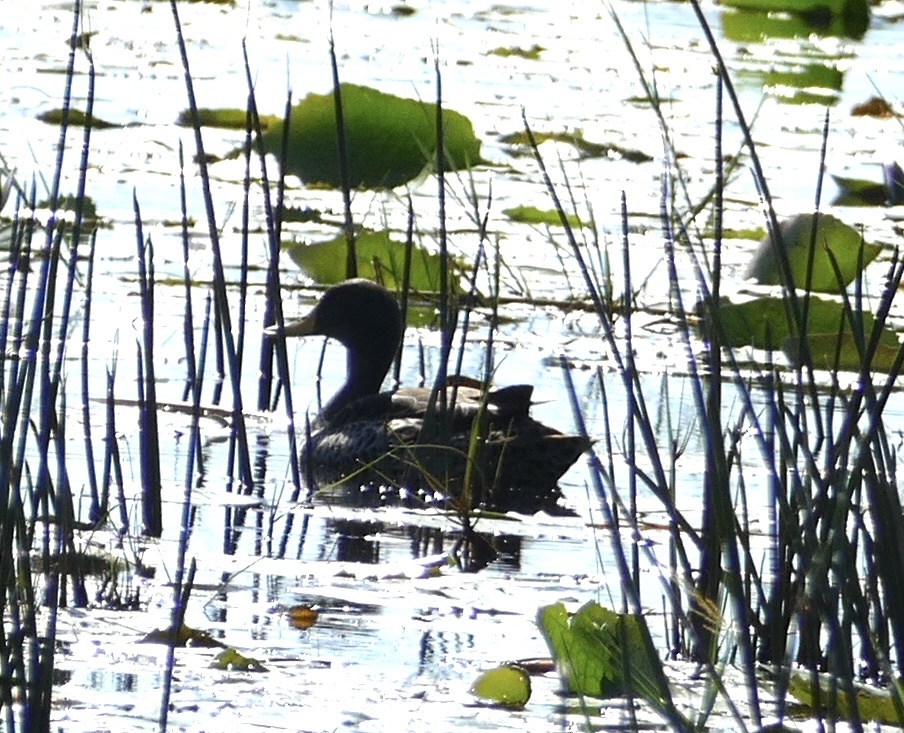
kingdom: Animalia
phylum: Chordata
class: Aves
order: Anseriformes
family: Anatidae
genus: Anas
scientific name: Anas undulata
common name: Yellow-billed duck
